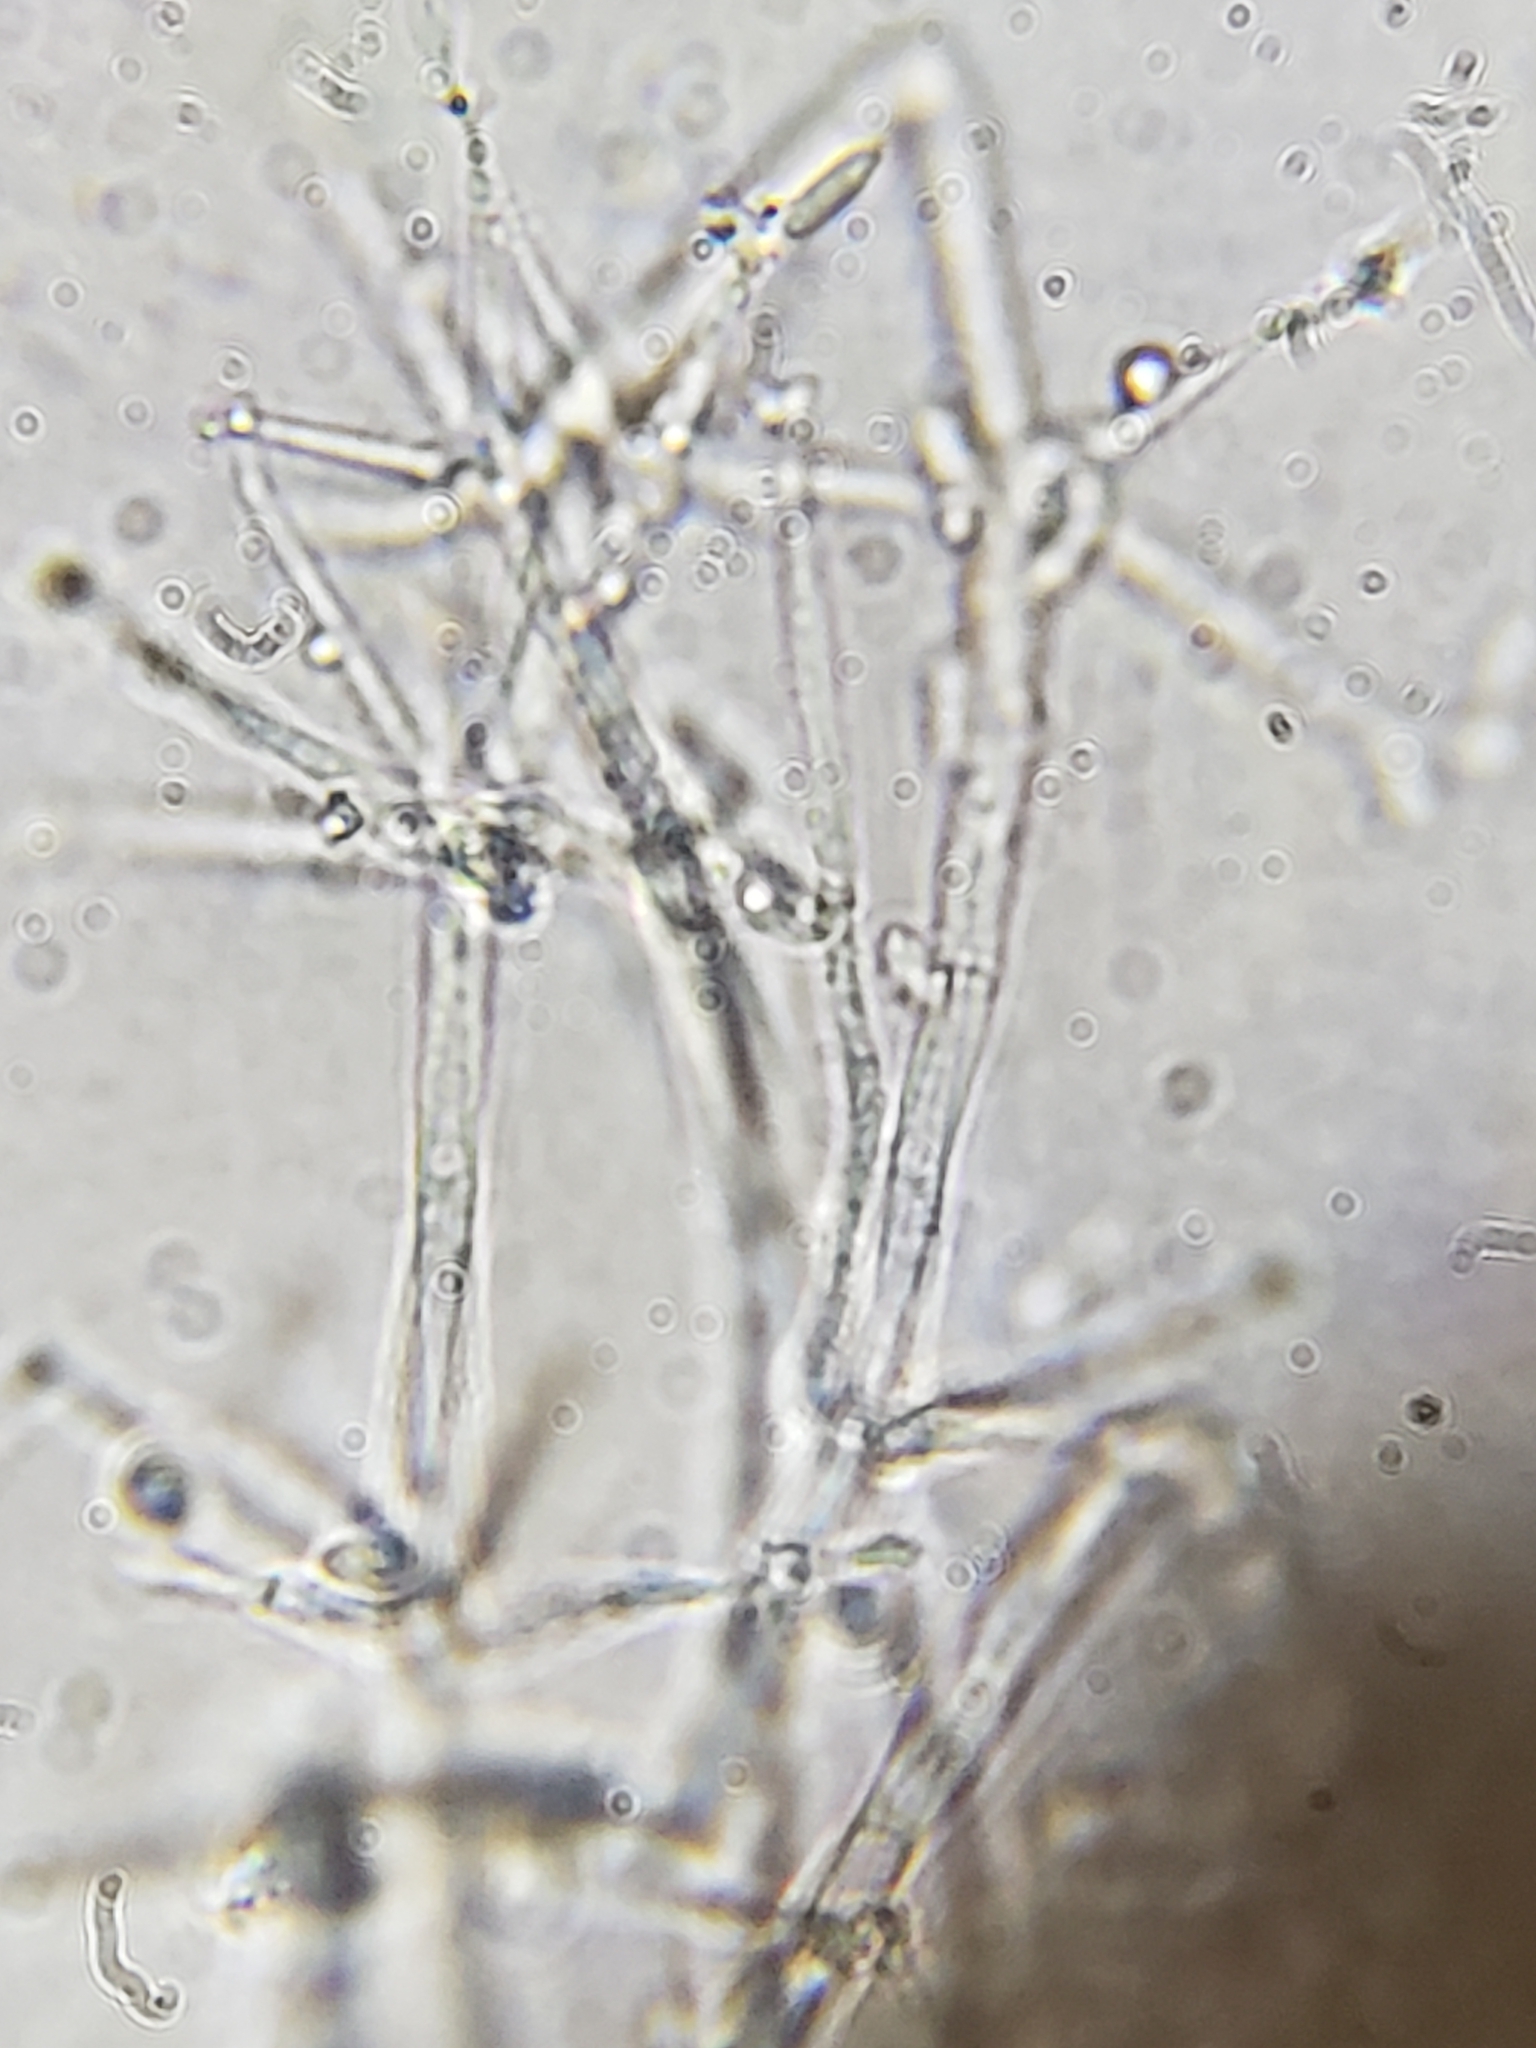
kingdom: Fungi
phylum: Ascomycota
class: Sordariomycetes
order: Hypocreales
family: Calcarisporiaceae
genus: Calcarisporium
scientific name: Calcarisporium arbuscula
